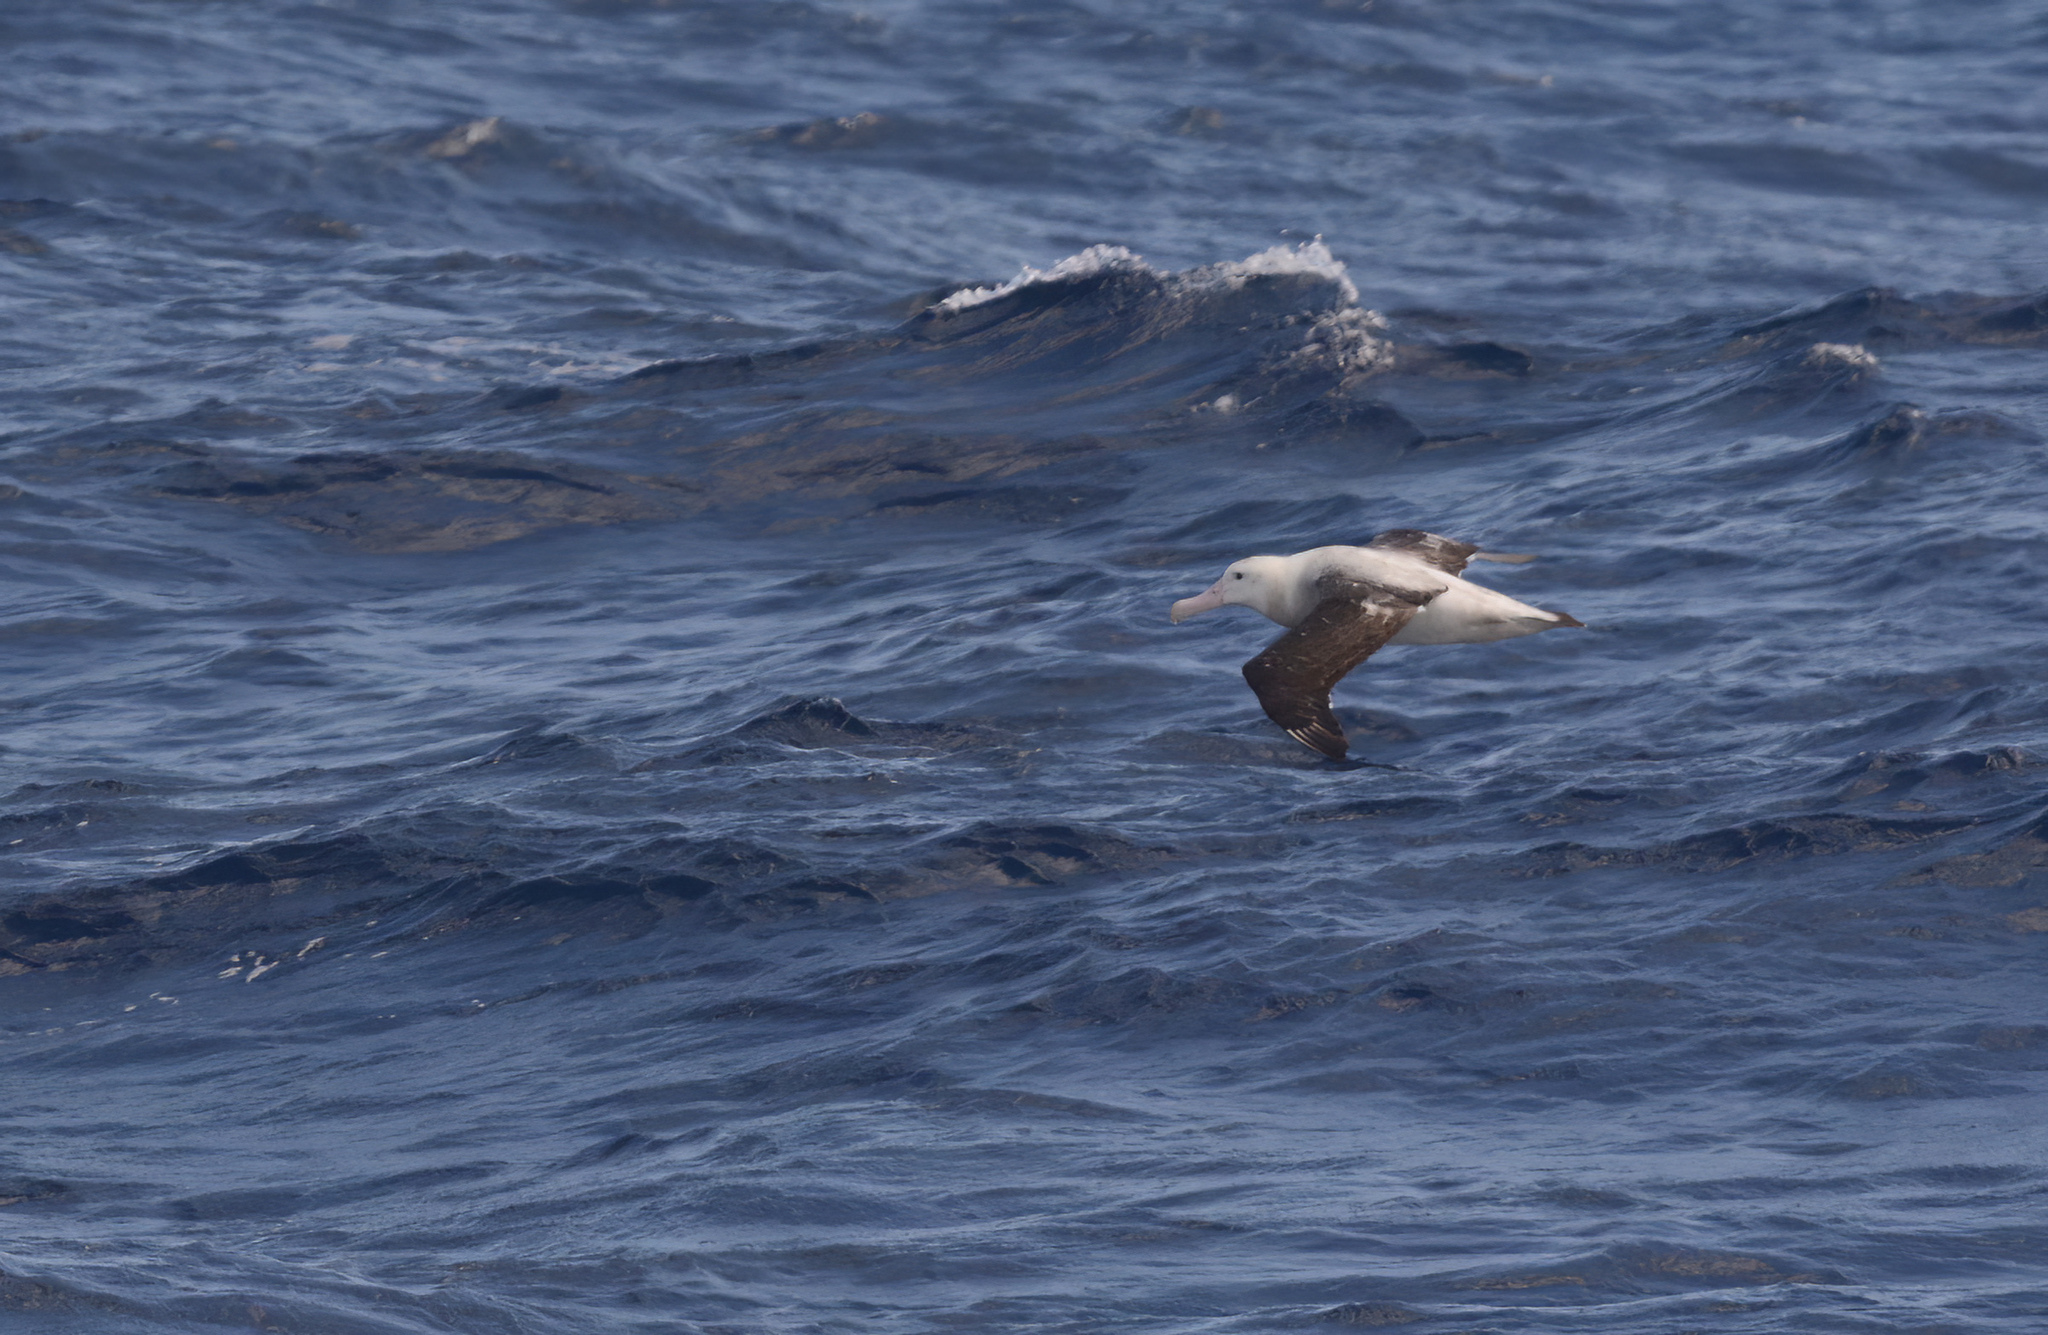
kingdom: Animalia
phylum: Chordata
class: Aves
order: Procellariiformes
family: Diomedeidae
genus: Diomedea
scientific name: Diomedea antipodensis
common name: Antipodean albatross
